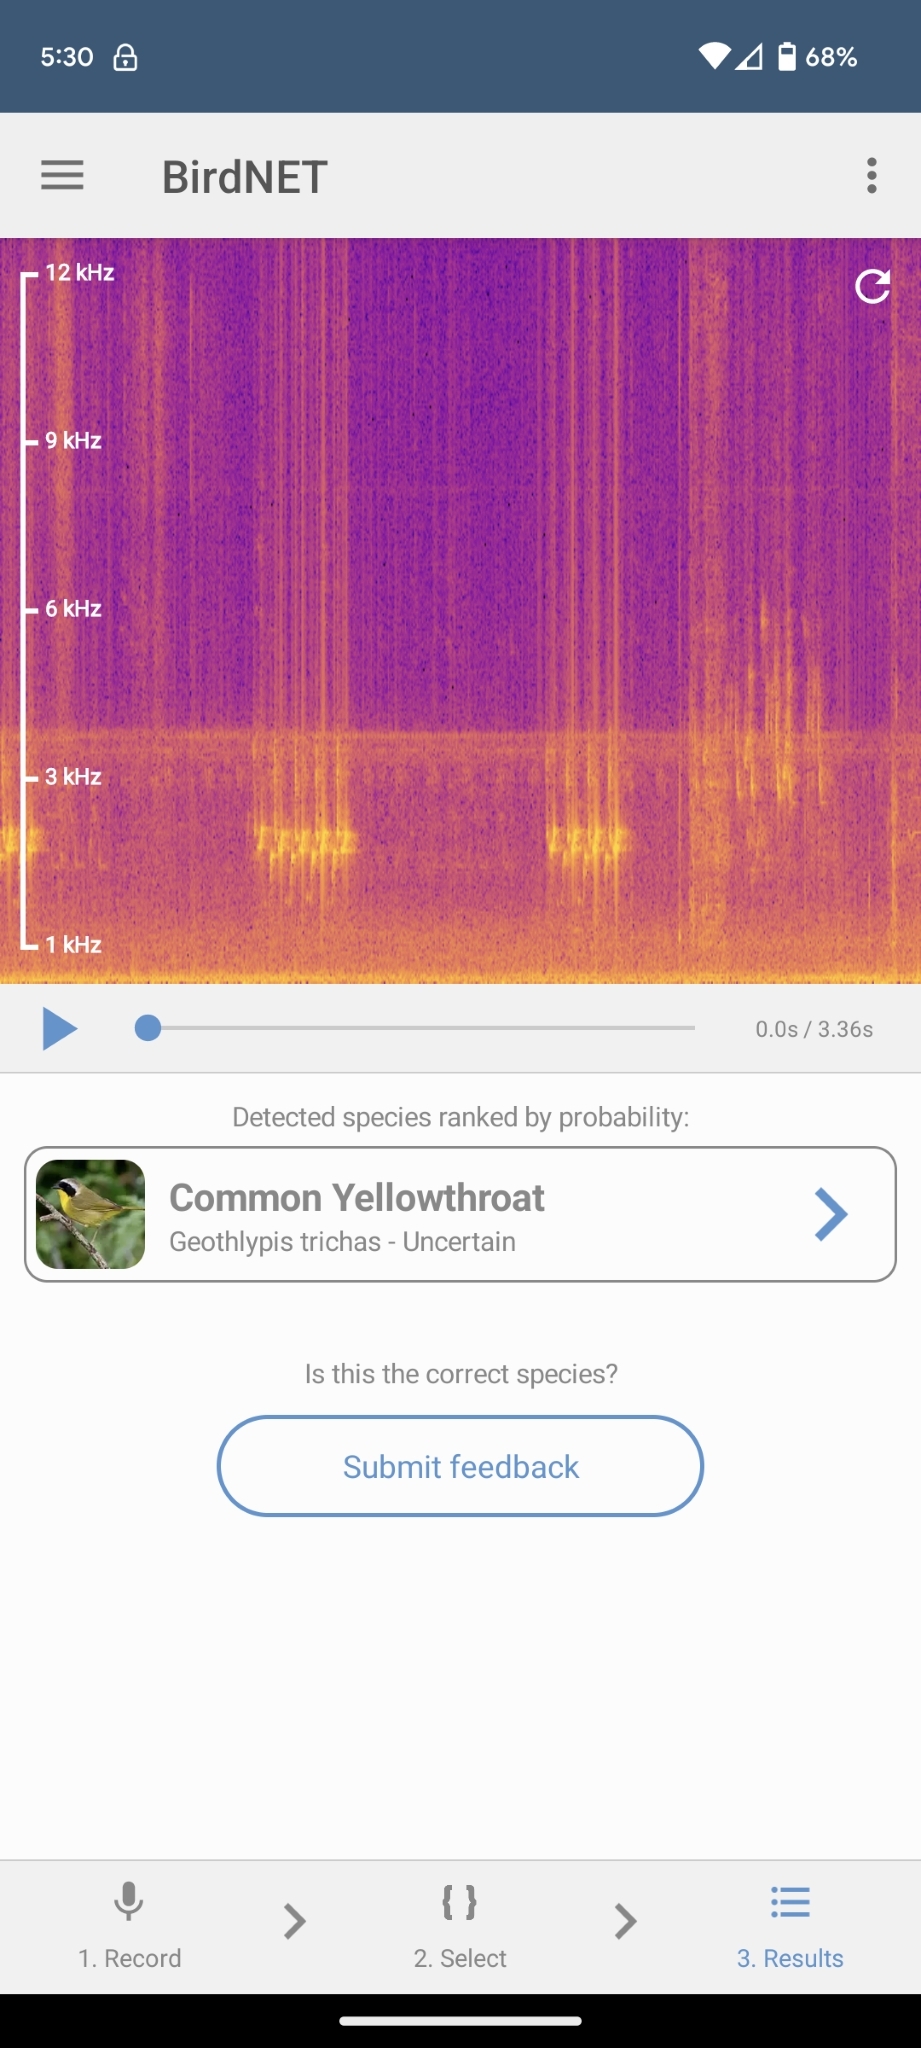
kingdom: Animalia
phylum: Chordata
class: Aves
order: Passeriformes
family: Parulidae
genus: Geothlypis
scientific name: Geothlypis trichas
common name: Common yellowthroat
